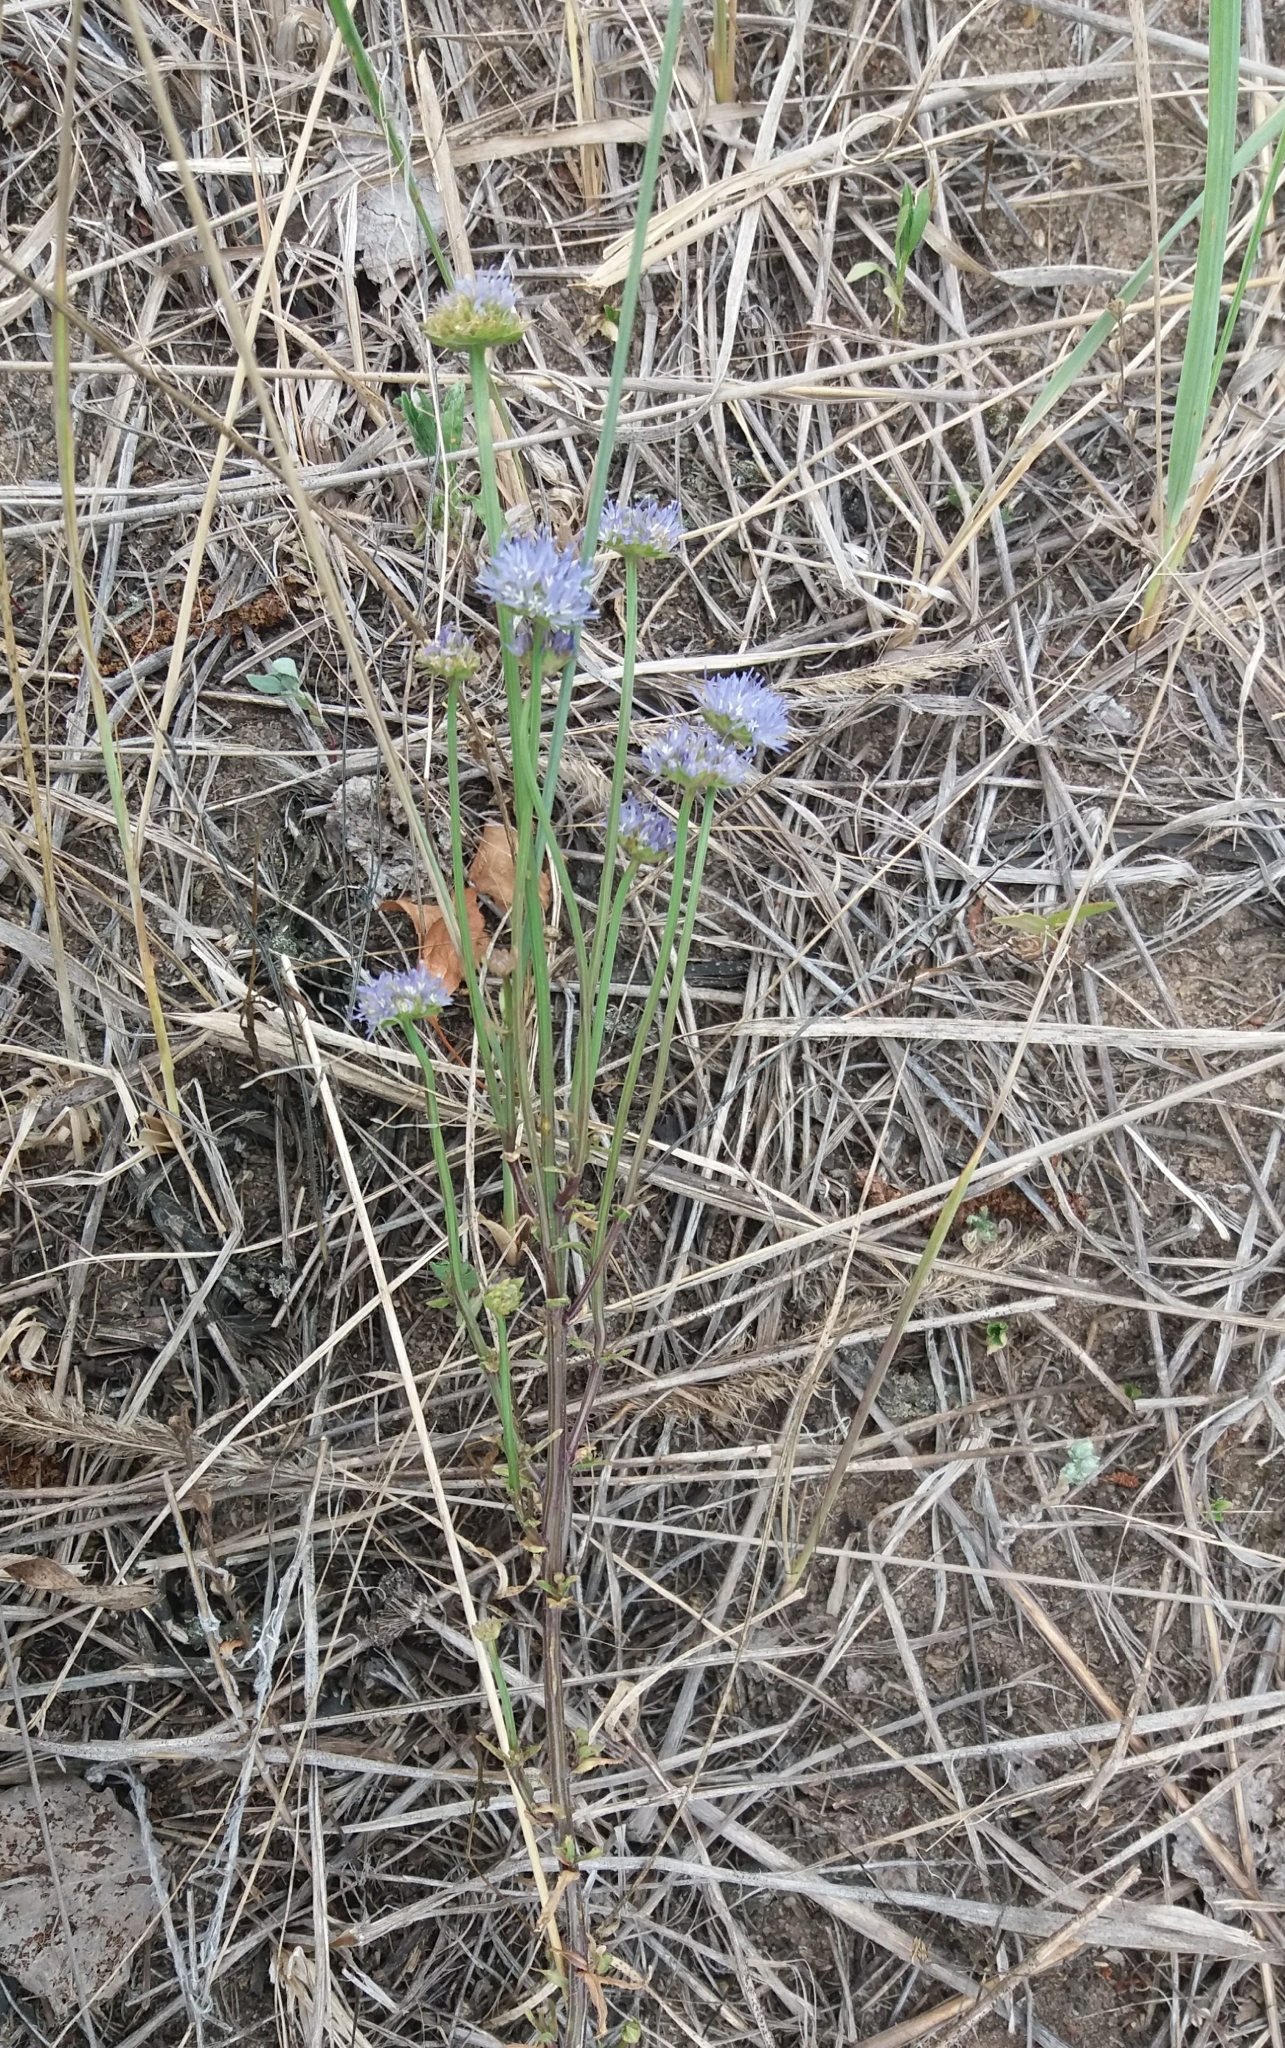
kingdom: Plantae
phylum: Tracheophyta
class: Magnoliopsida
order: Asterales
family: Campanulaceae
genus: Jasione
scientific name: Jasione montana
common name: Sheep's-bit
